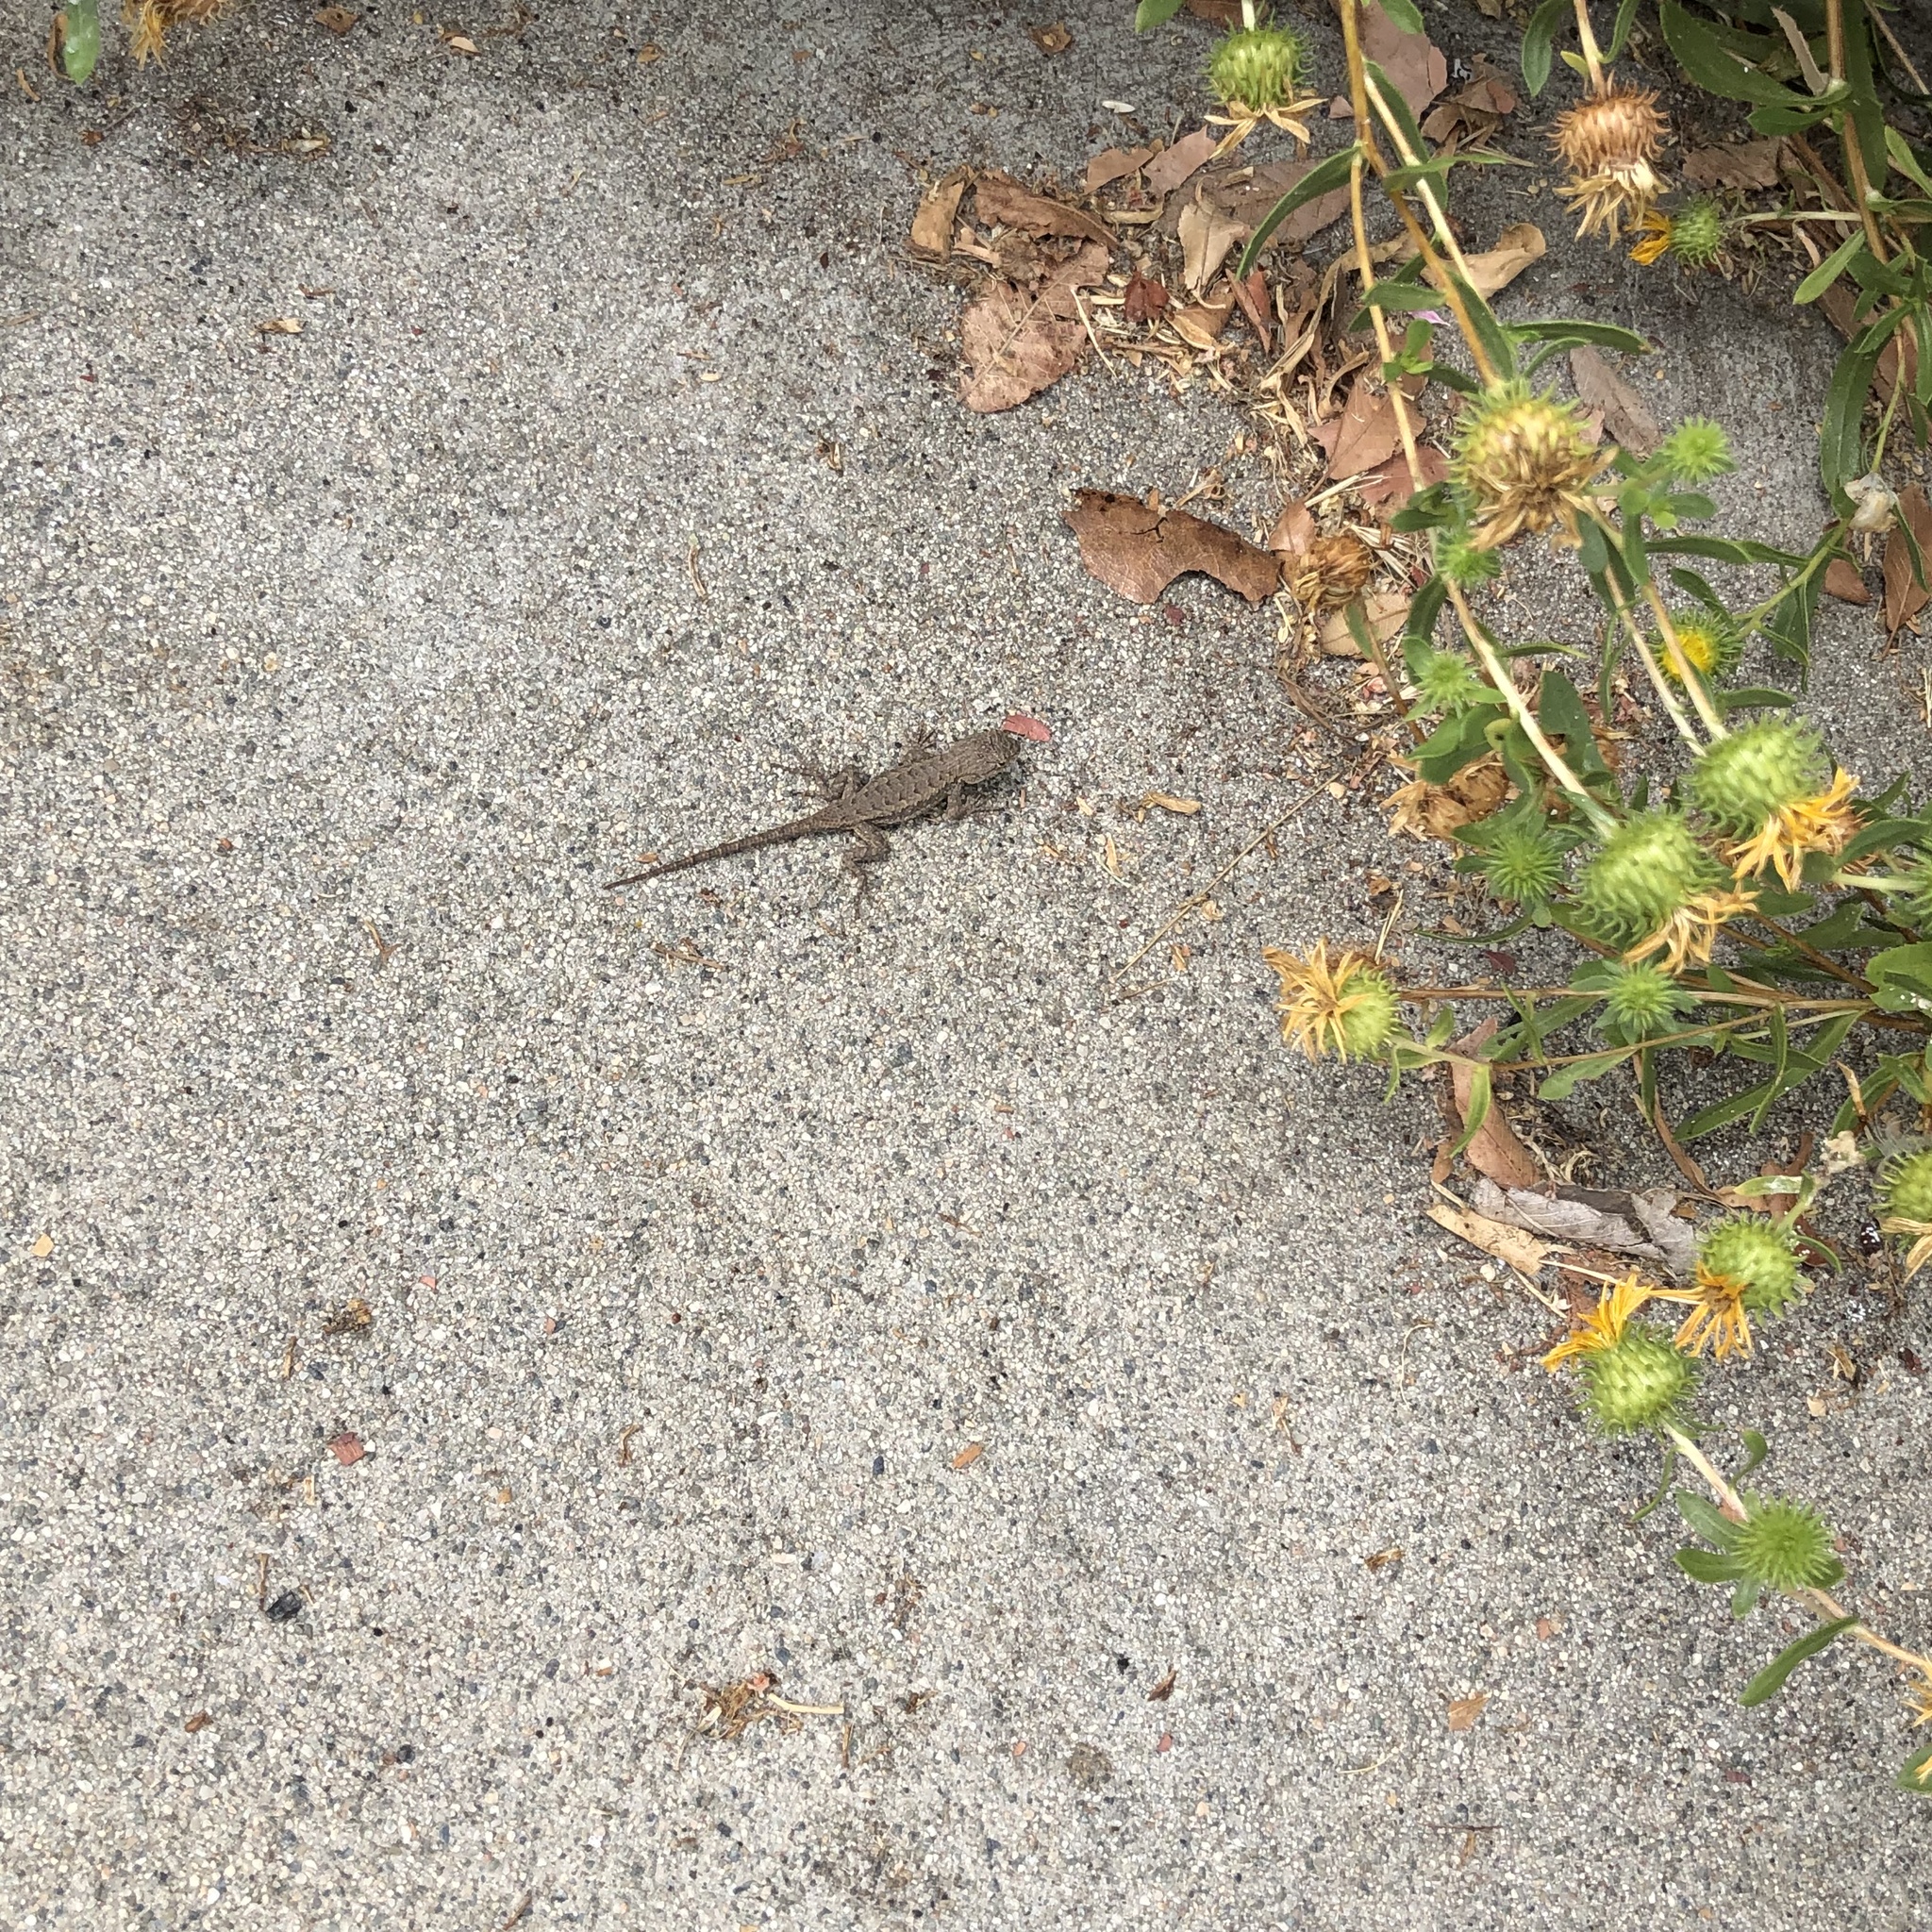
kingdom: Animalia
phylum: Chordata
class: Squamata
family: Phrynosomatidae
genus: Sceloporus
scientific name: Sceloporus occidentalis
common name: Western fence lizard
